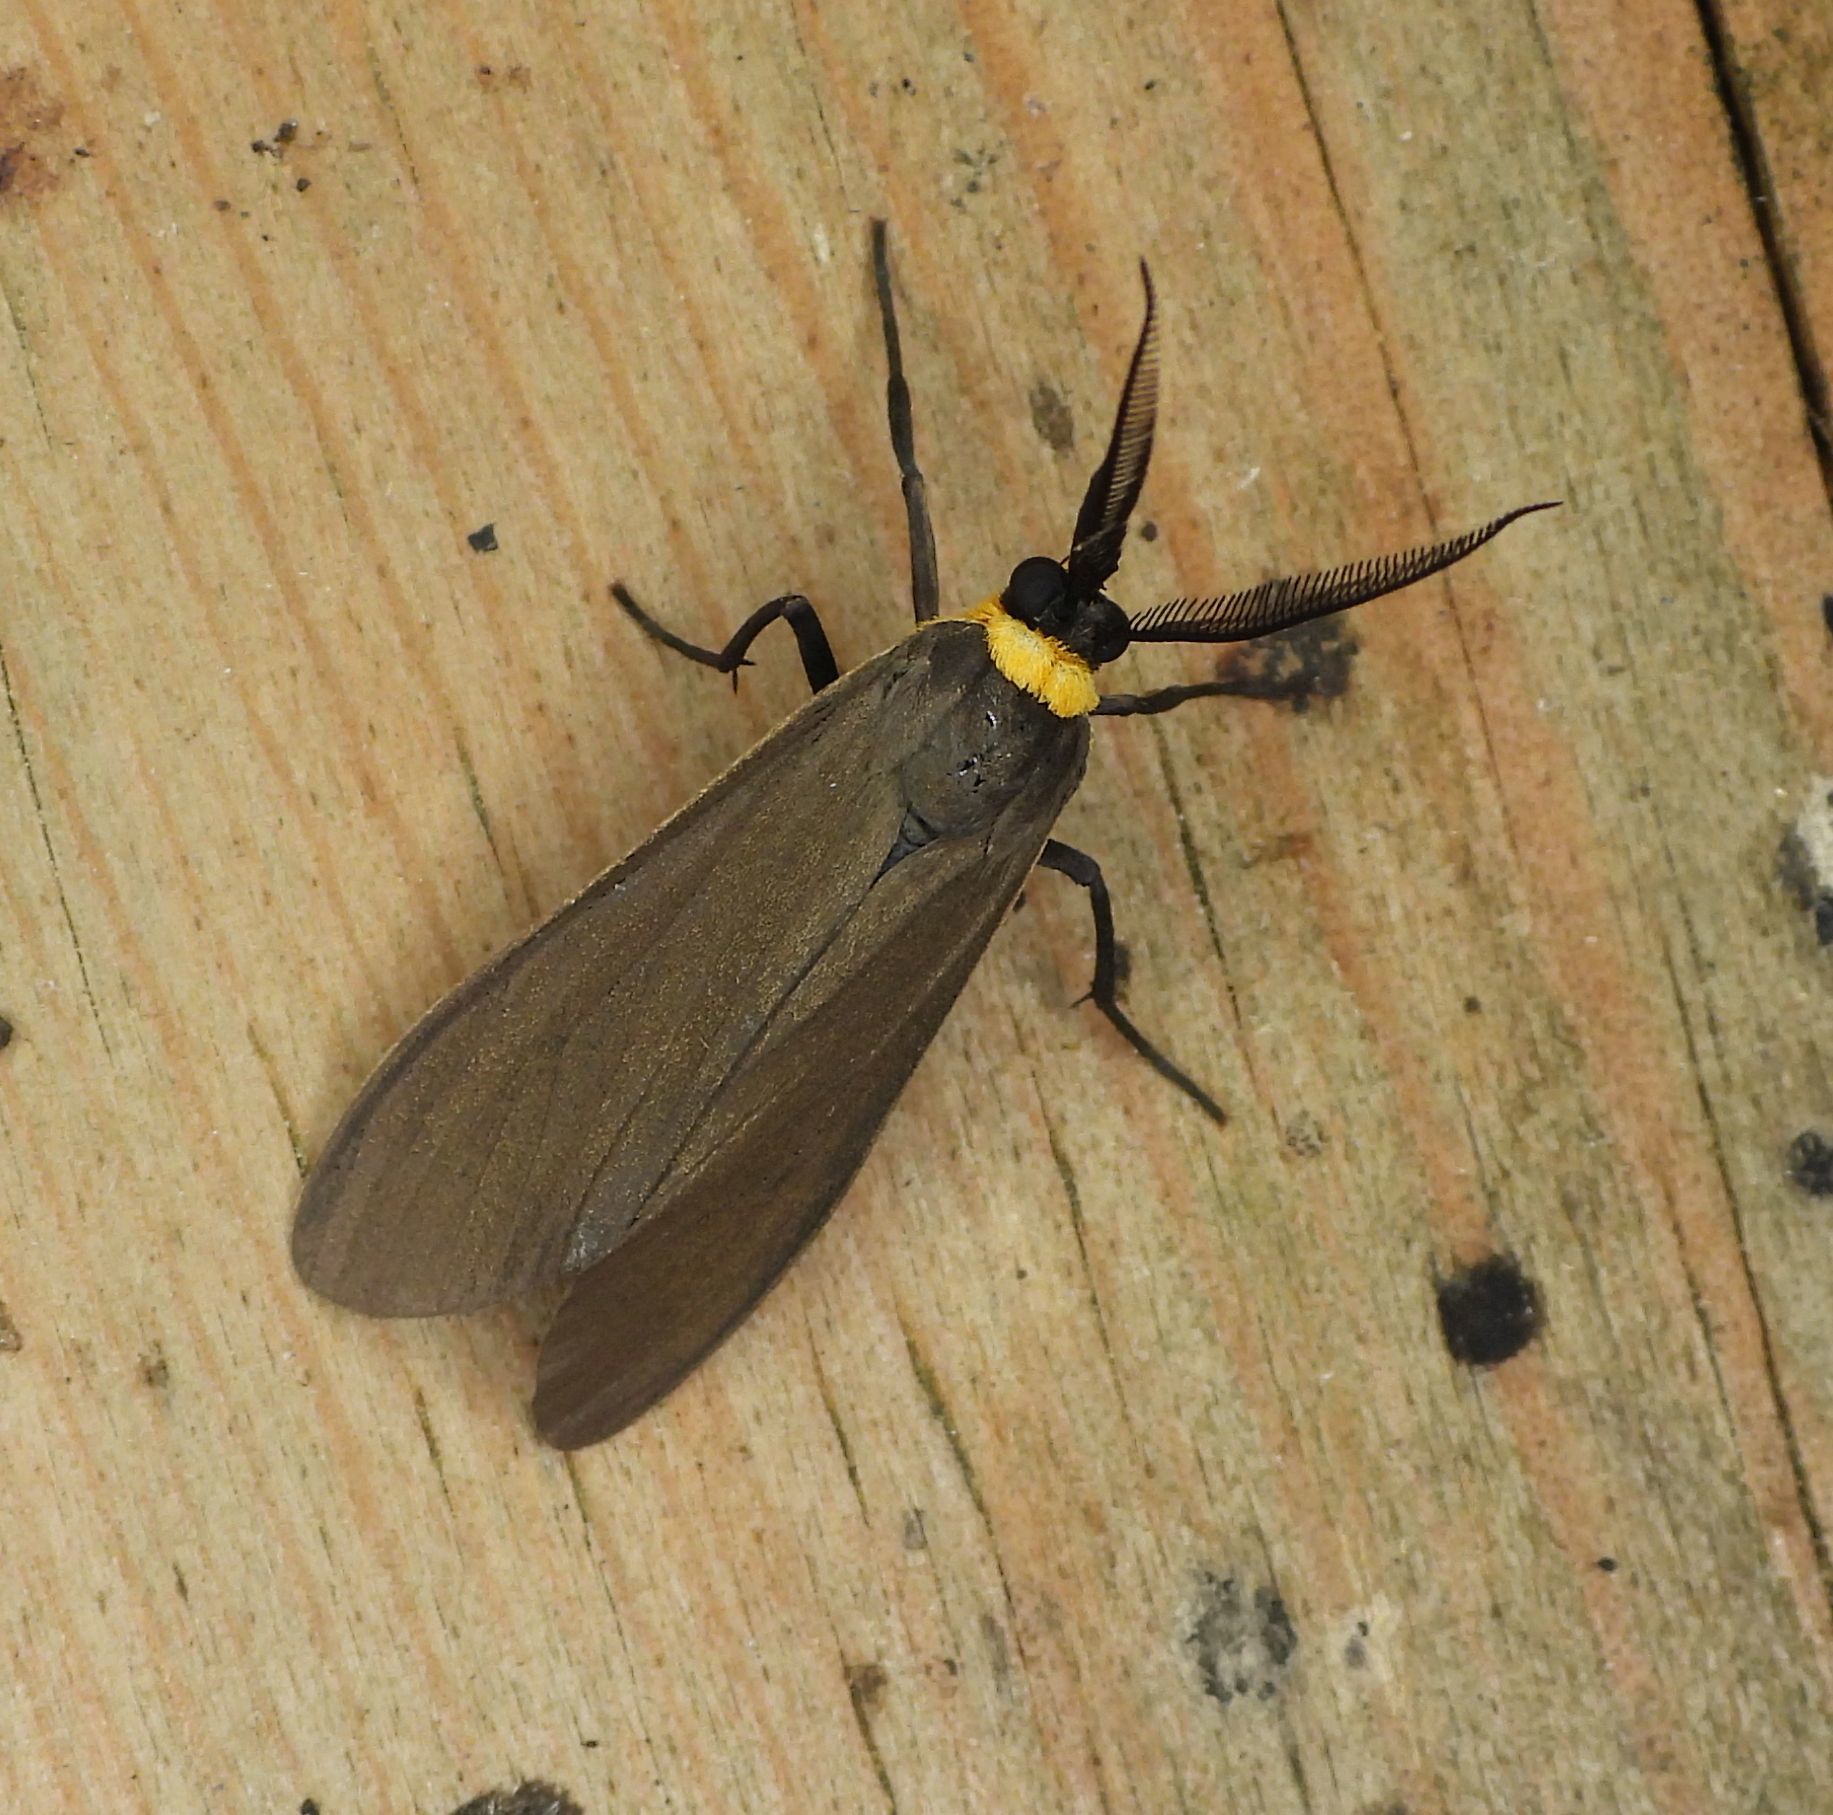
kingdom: Animalia
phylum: Arthropoda
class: Insecta
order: Lepidoptera
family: Erebidae
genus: Cisseps
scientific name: Cisseps fulvicollis
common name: Yellow-collared scape moth
